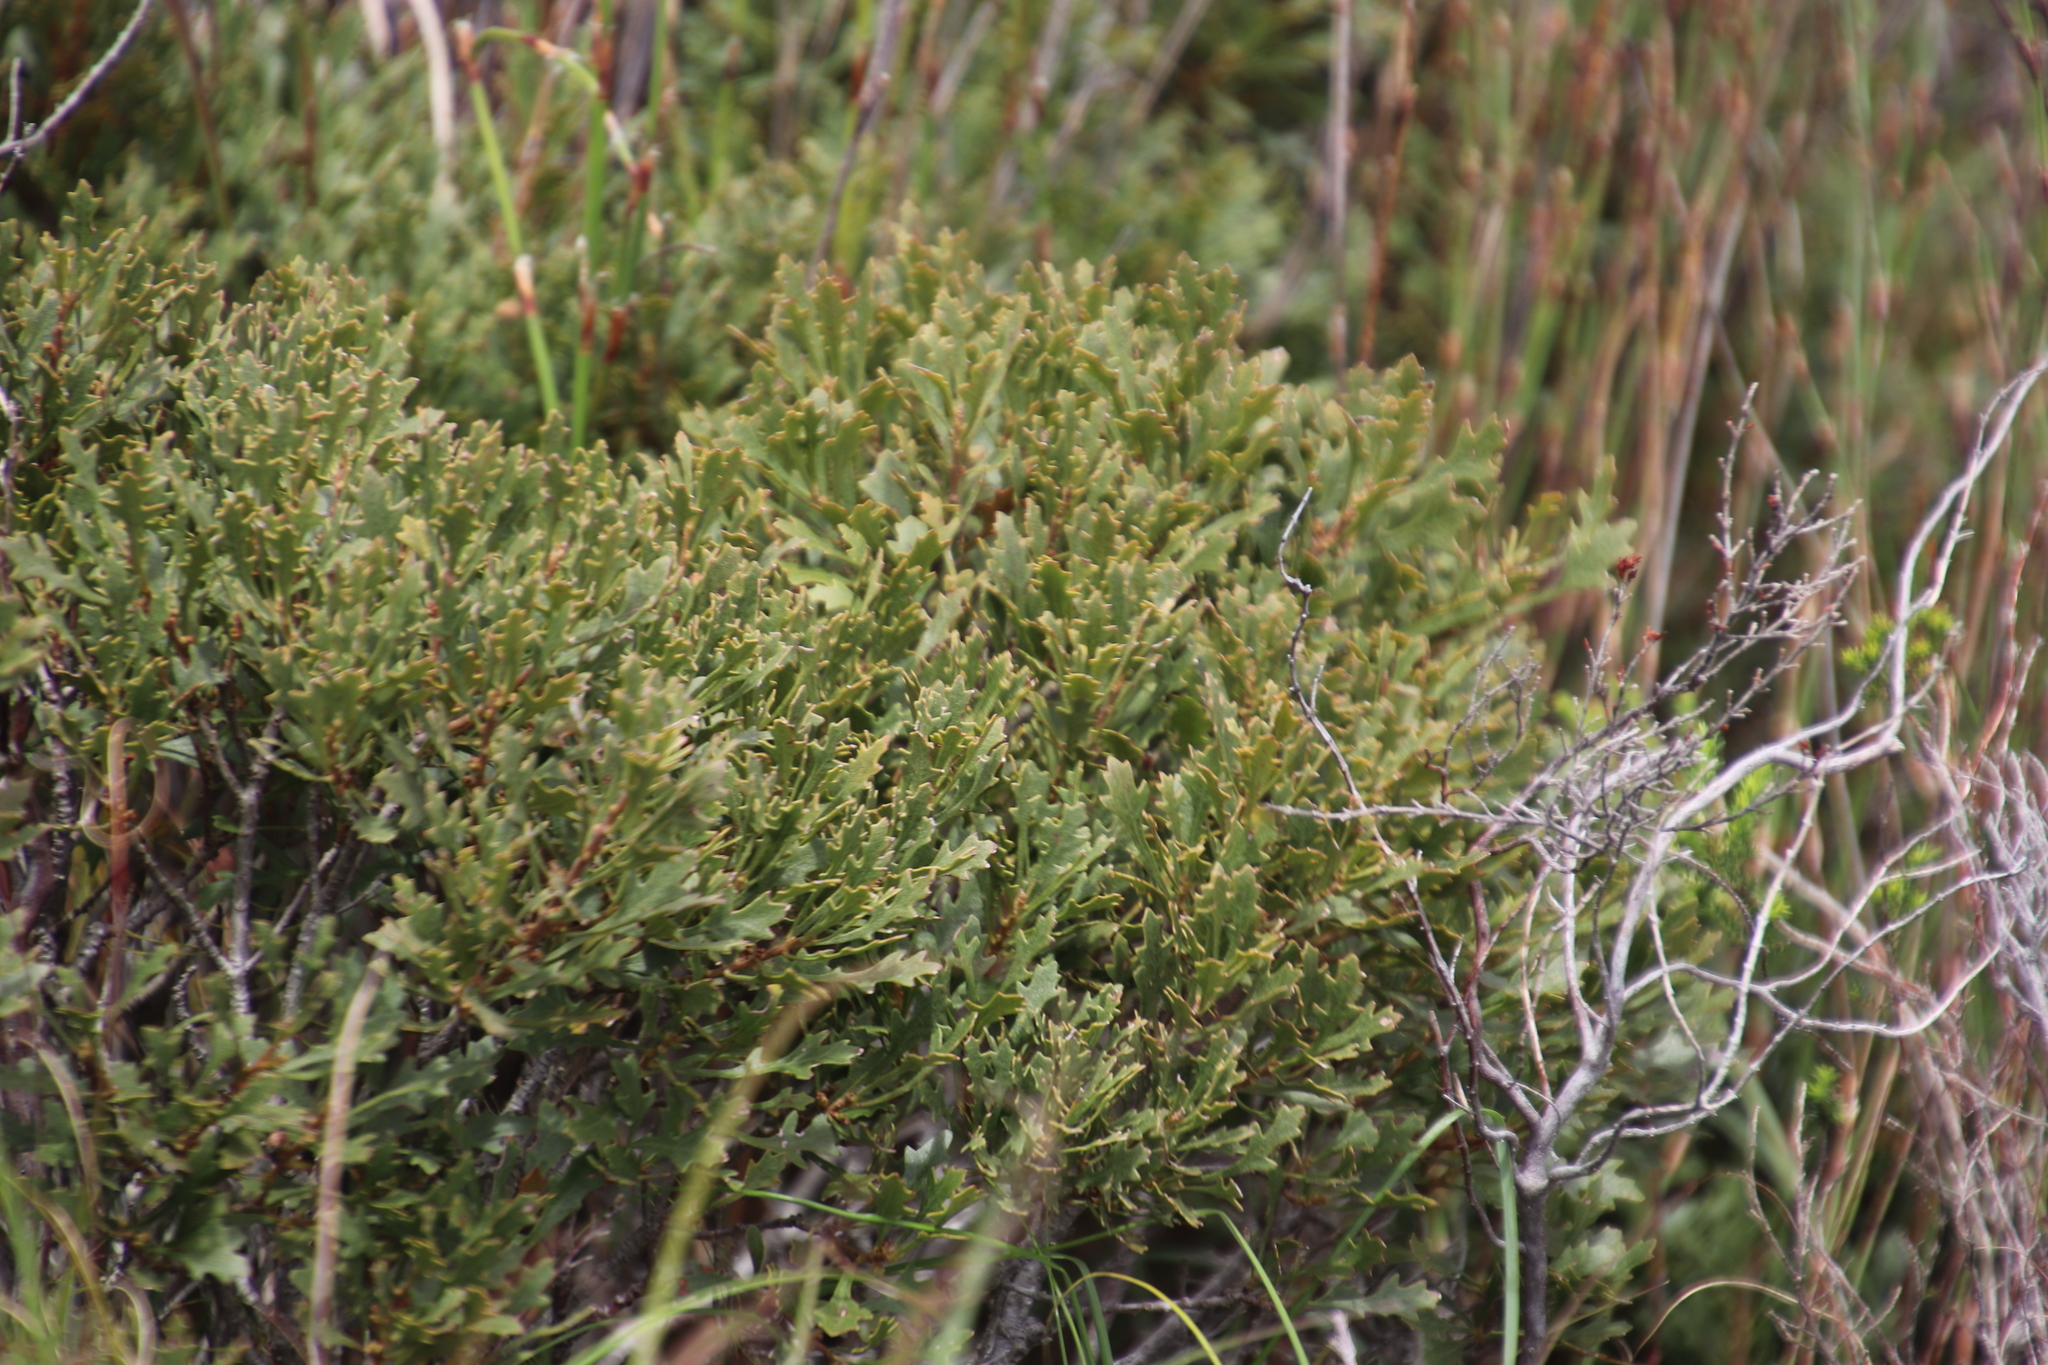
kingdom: Plantae
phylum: Tracheophyta
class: Magnoliopsida
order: Fagales
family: Myricaceae
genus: Morella
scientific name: Morella quercifolia
